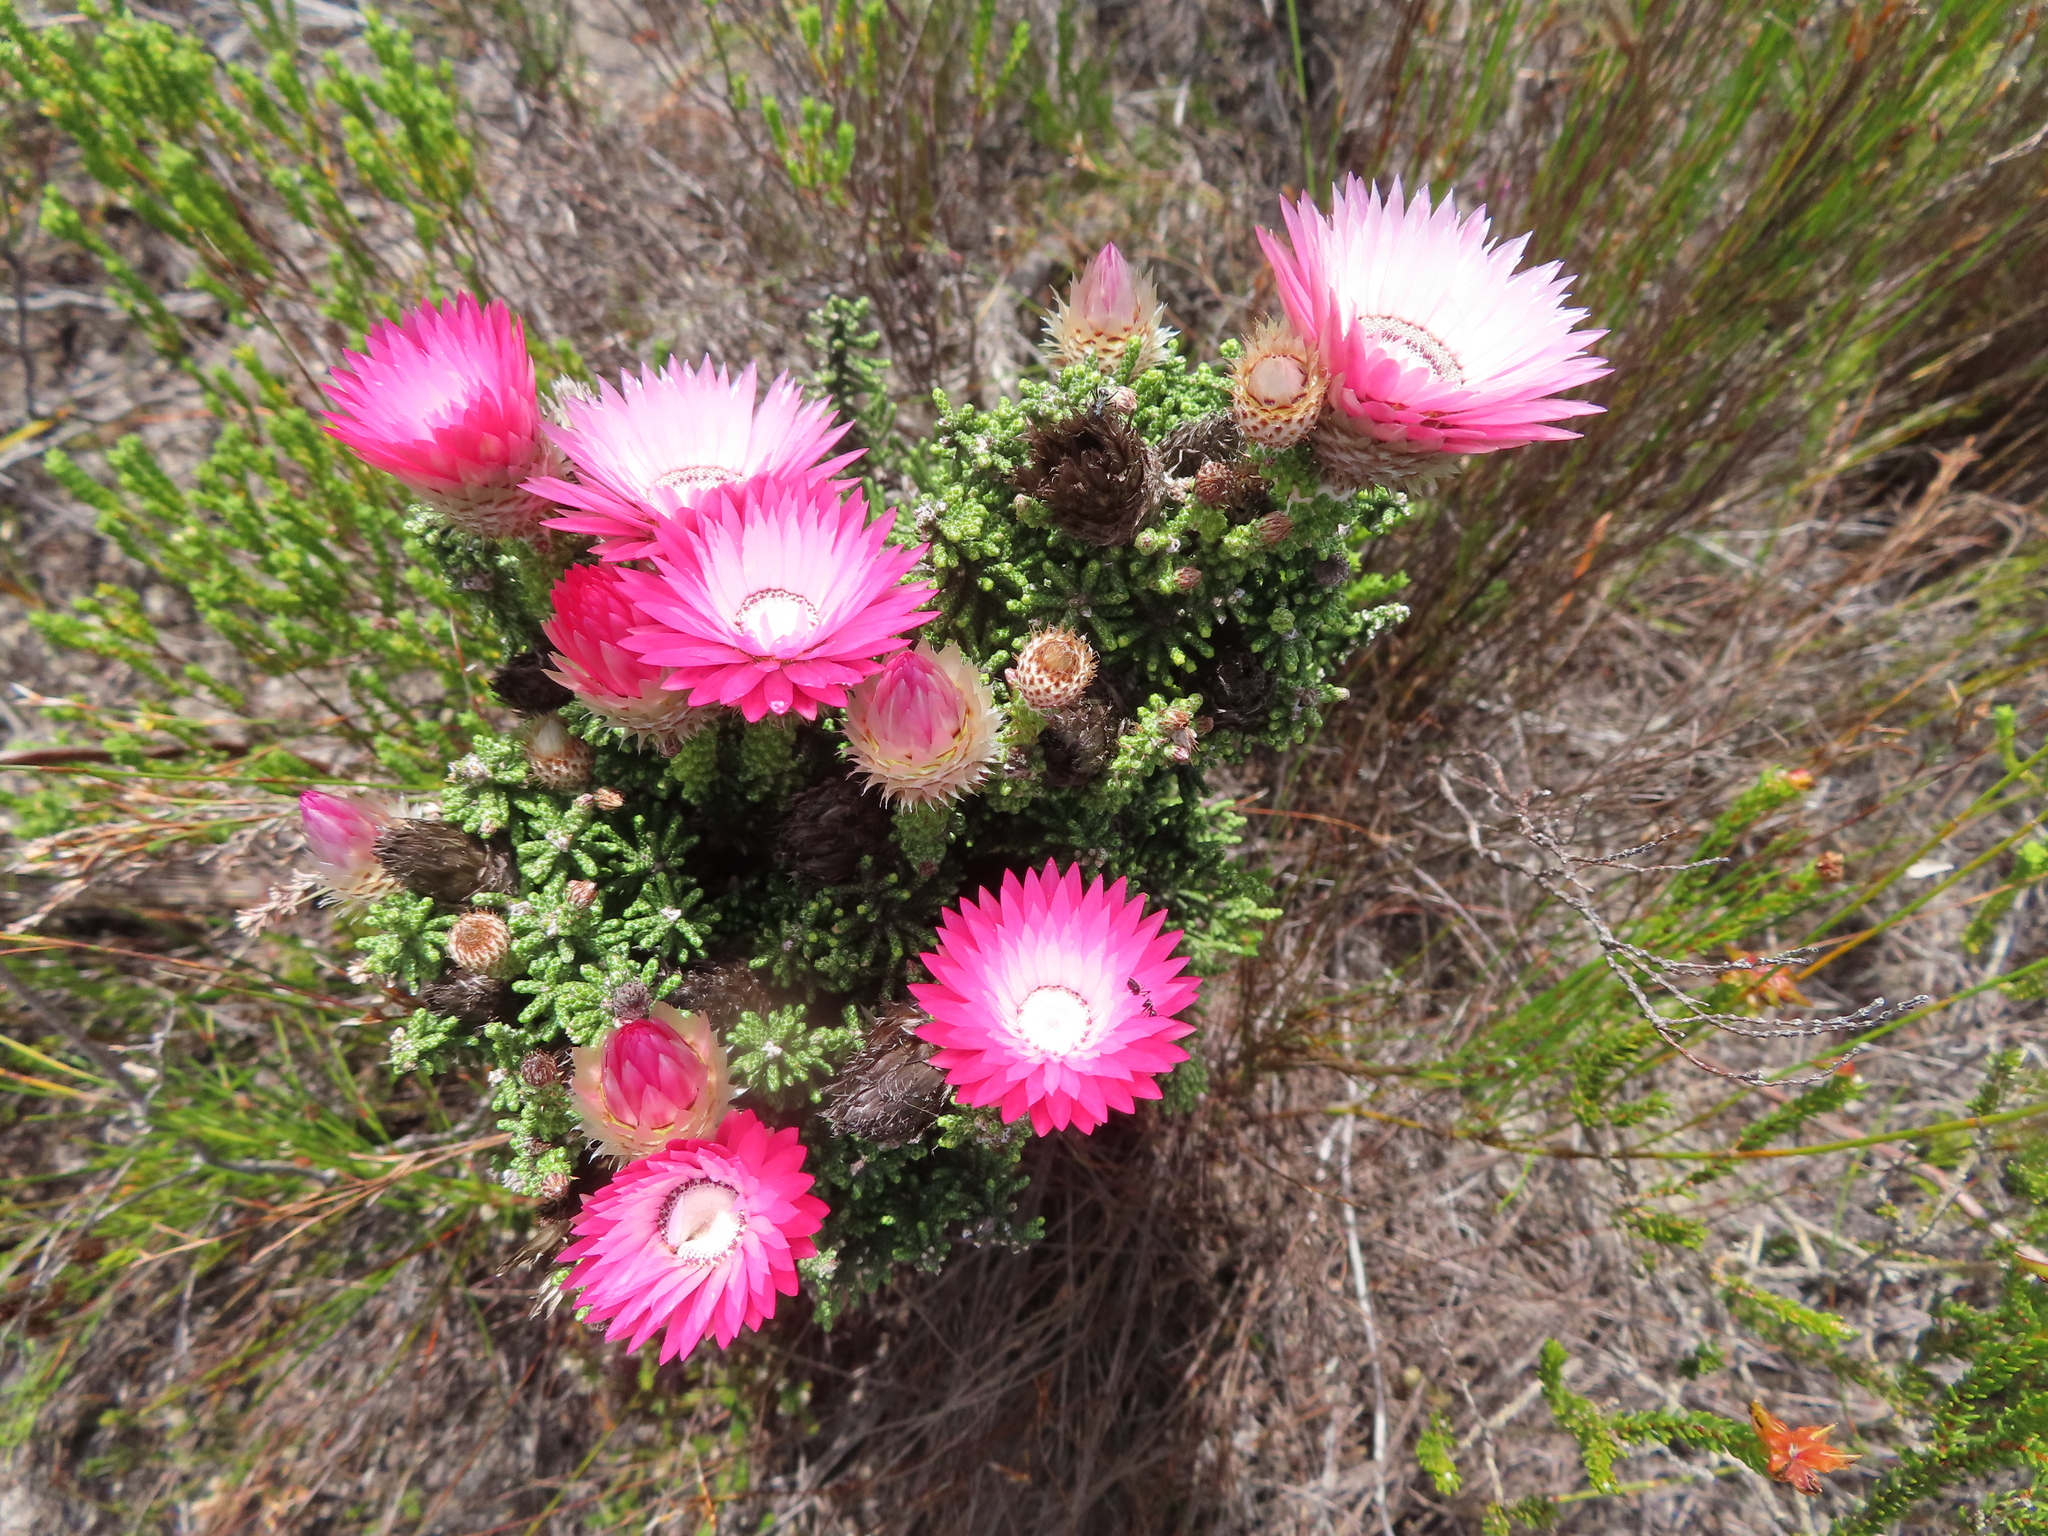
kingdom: Plantae
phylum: Tracheophyta
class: Magnoliopsida
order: Asterales
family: Asteraceae
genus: Phaenocoma
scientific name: Phaenocoma prolifera
